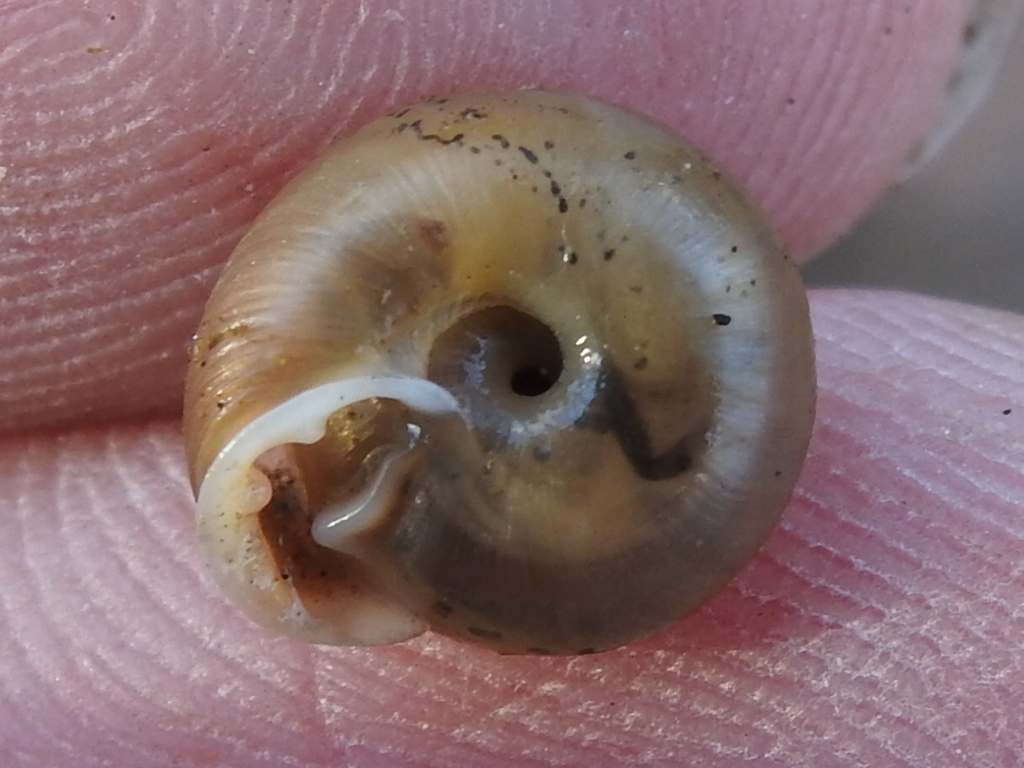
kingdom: Animalia
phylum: Mollusca
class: Gastropoda
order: Stylommatophora
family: Polygyridae
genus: Linisa
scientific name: Linisa texasiana
